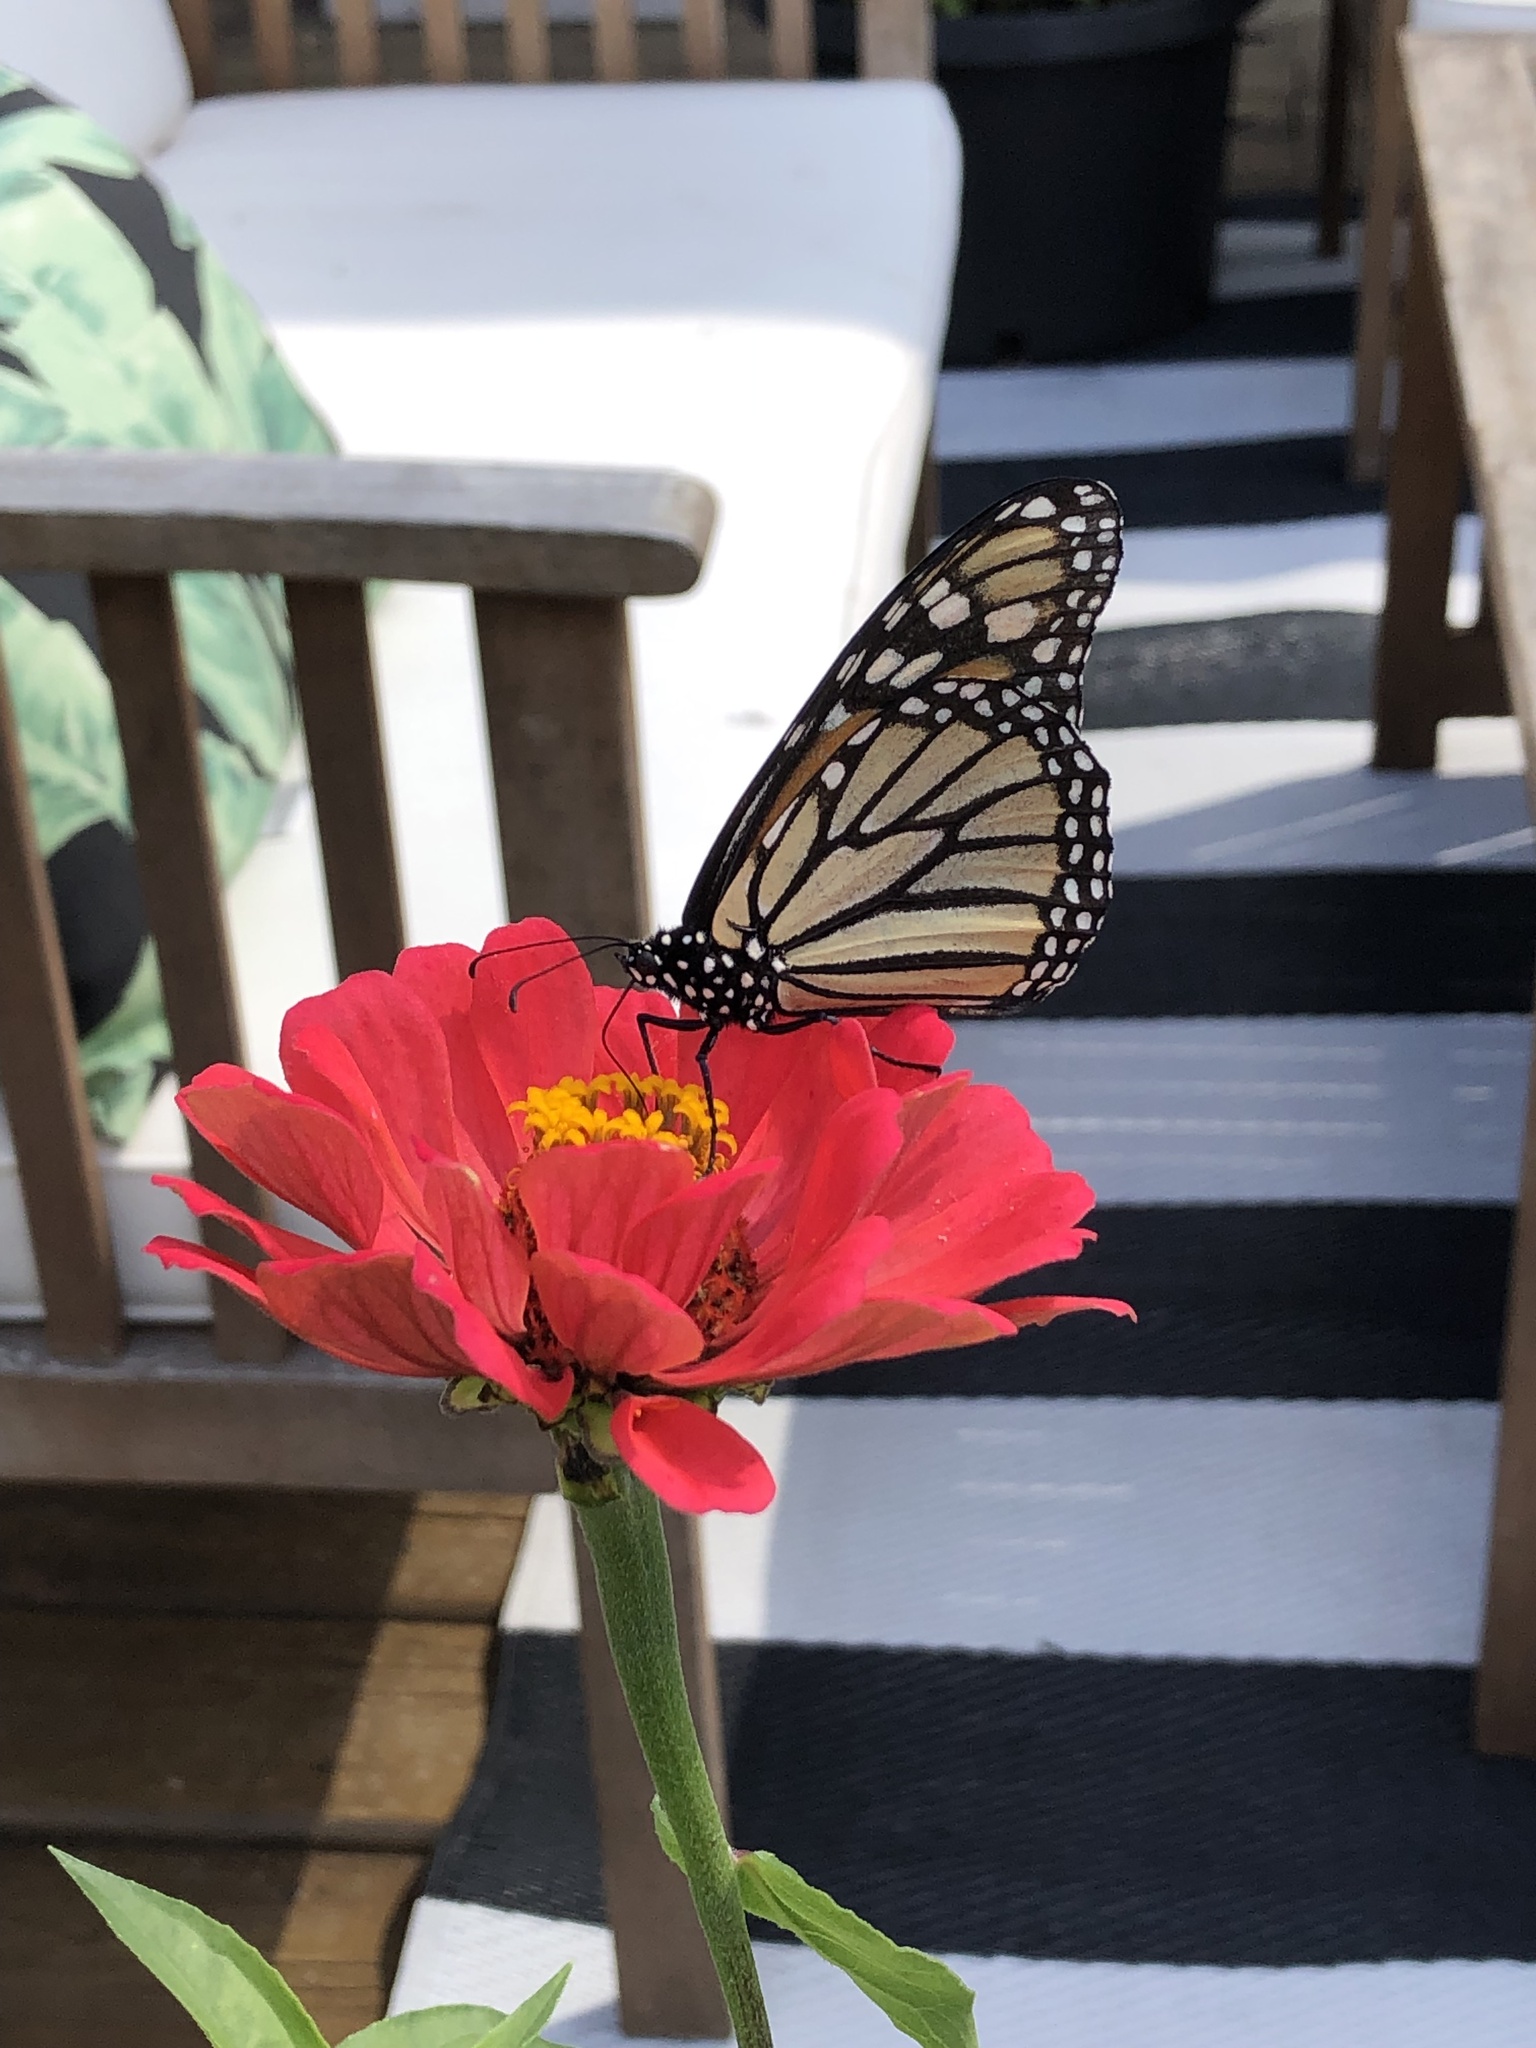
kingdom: Animalia
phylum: Arthropoda
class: Insecta
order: Lepidoptera
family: Nymphalidae
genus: Danaus
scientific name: Danaus plexippus
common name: Monarch
